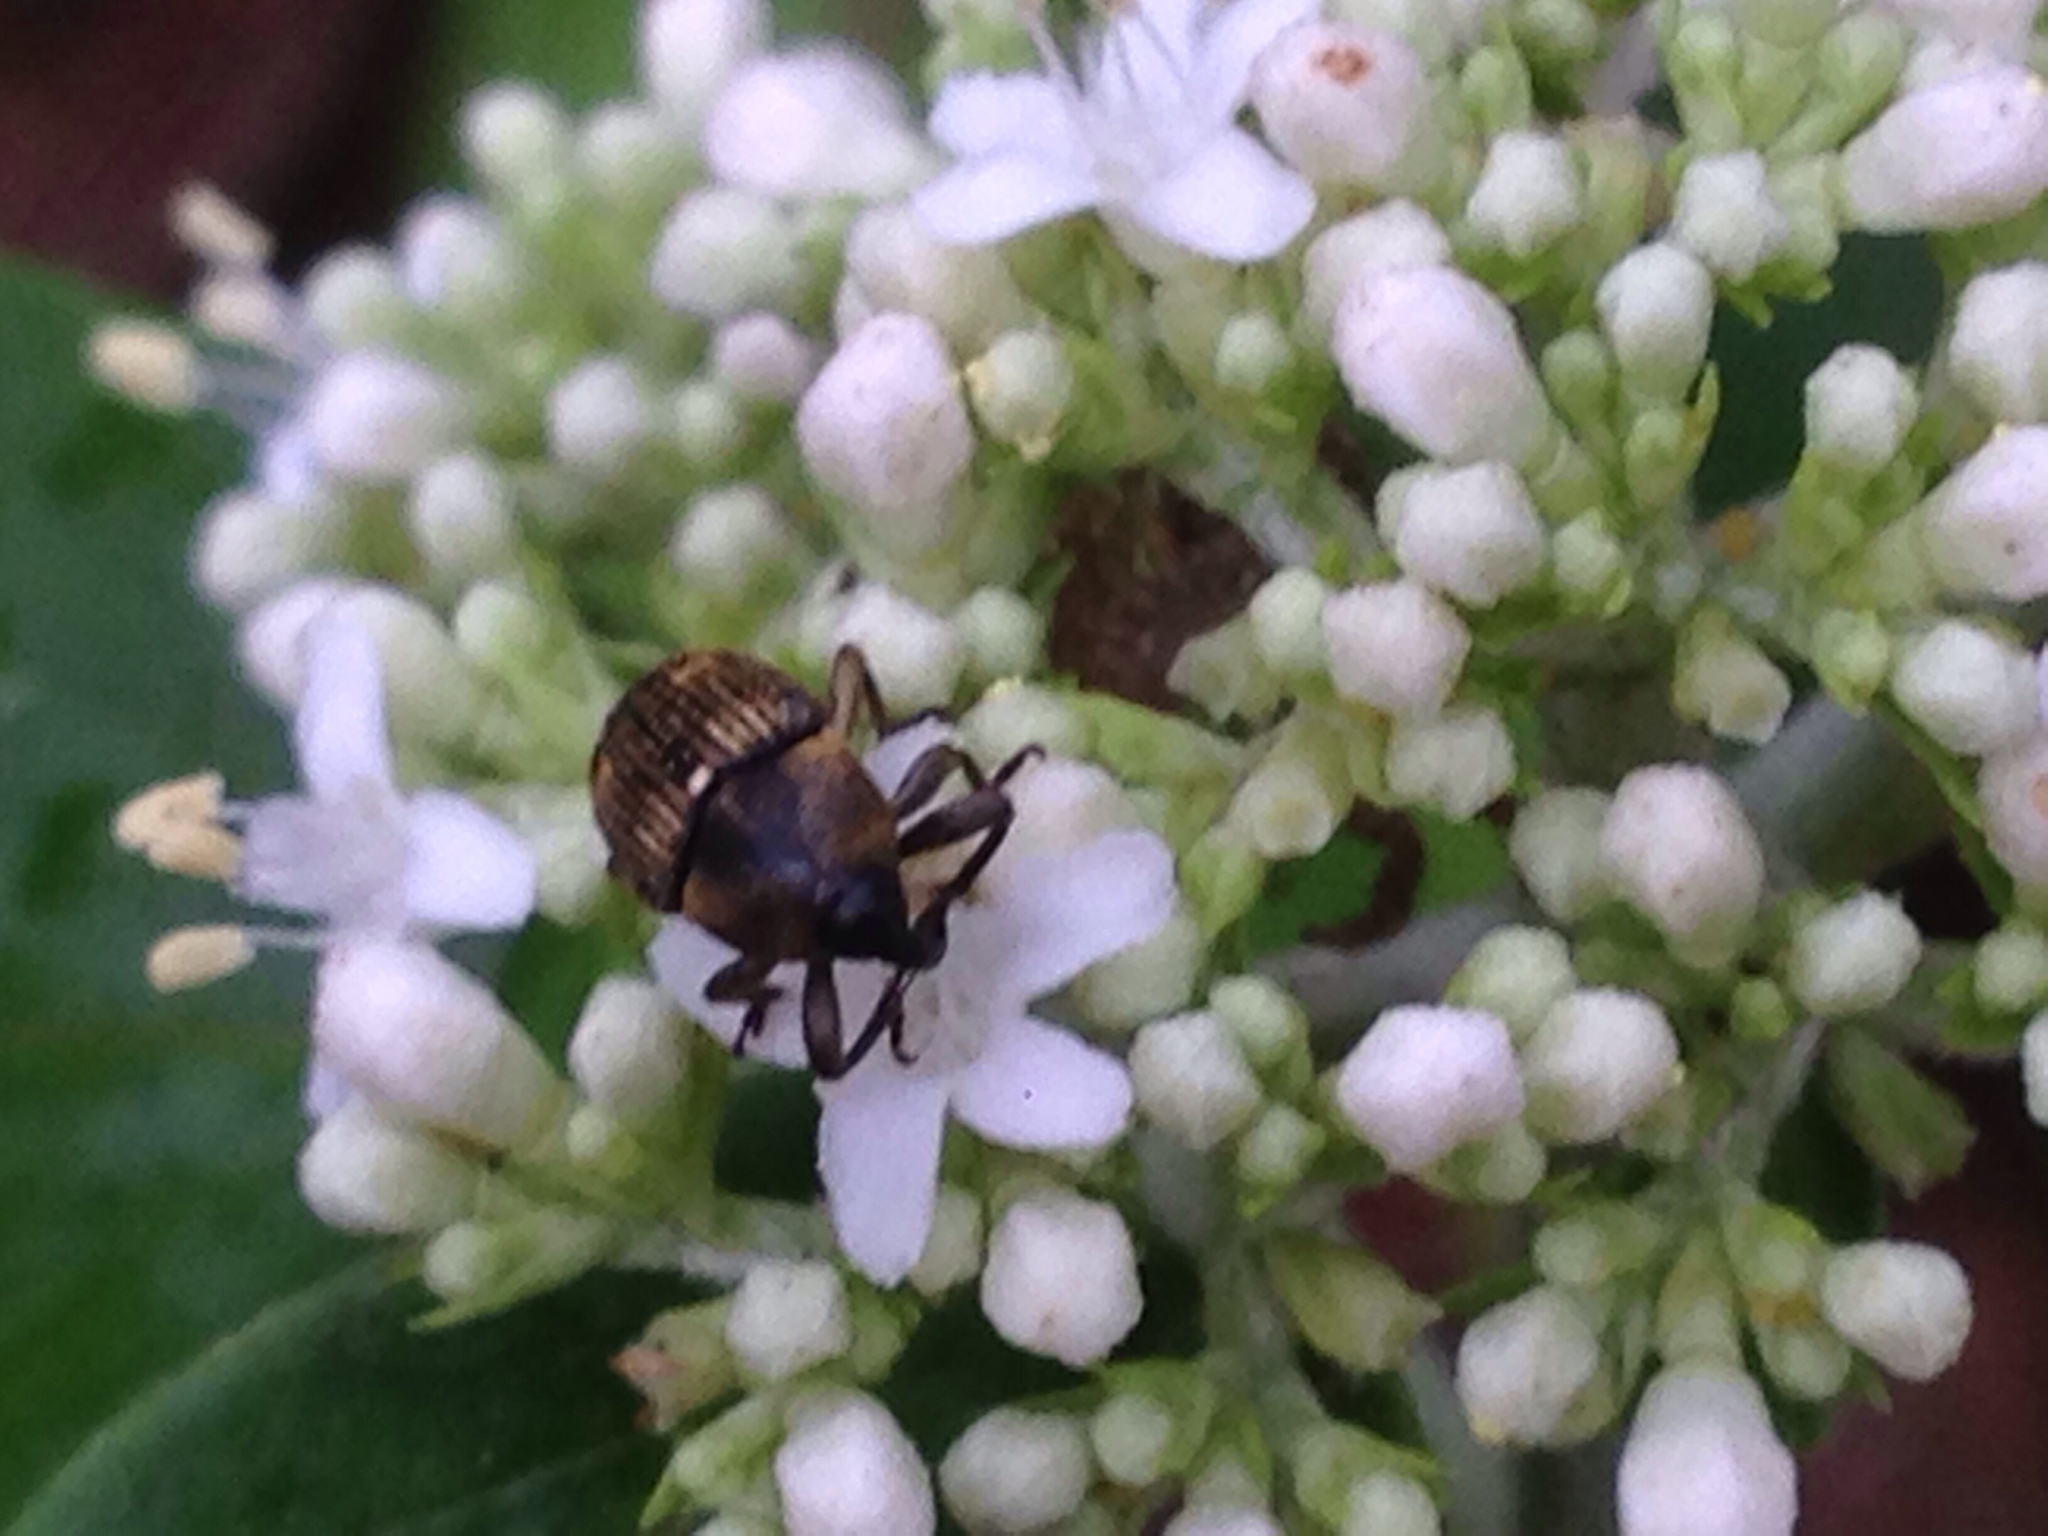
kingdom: Animalia
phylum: Arthropoda
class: Insecta
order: Coleoptera
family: Curculionidae
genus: Anthinobaris
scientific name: Anthinobaris dispilota
